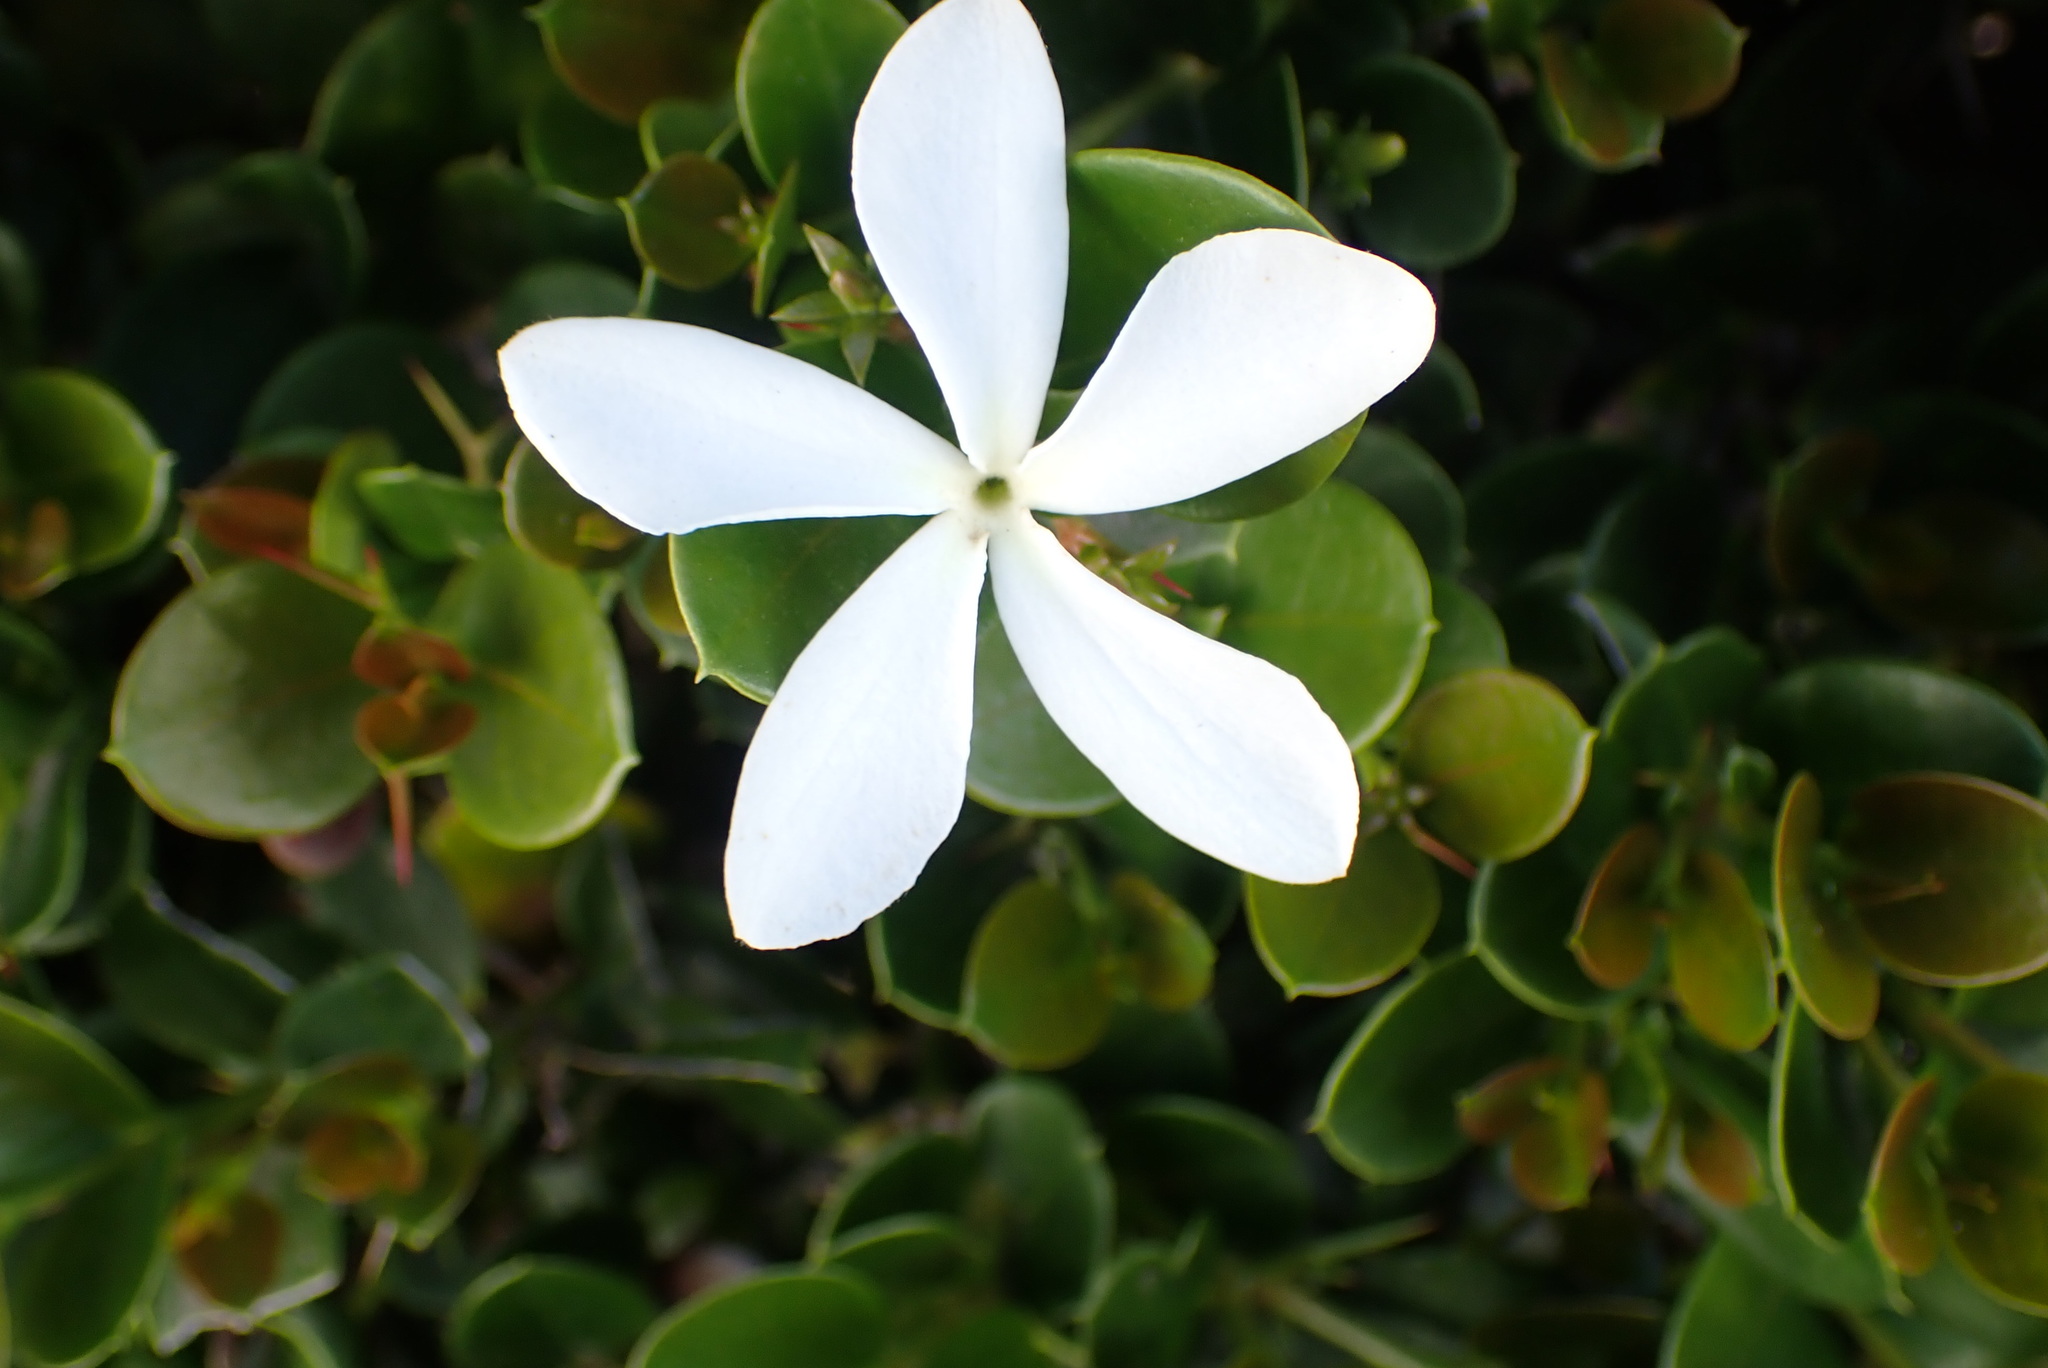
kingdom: Plantae
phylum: Tracheophyta
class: Magnoliopsida
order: Gentianales
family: Apocynaceae
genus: Carissa
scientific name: Carissa macrocarpa
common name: Natal plum
